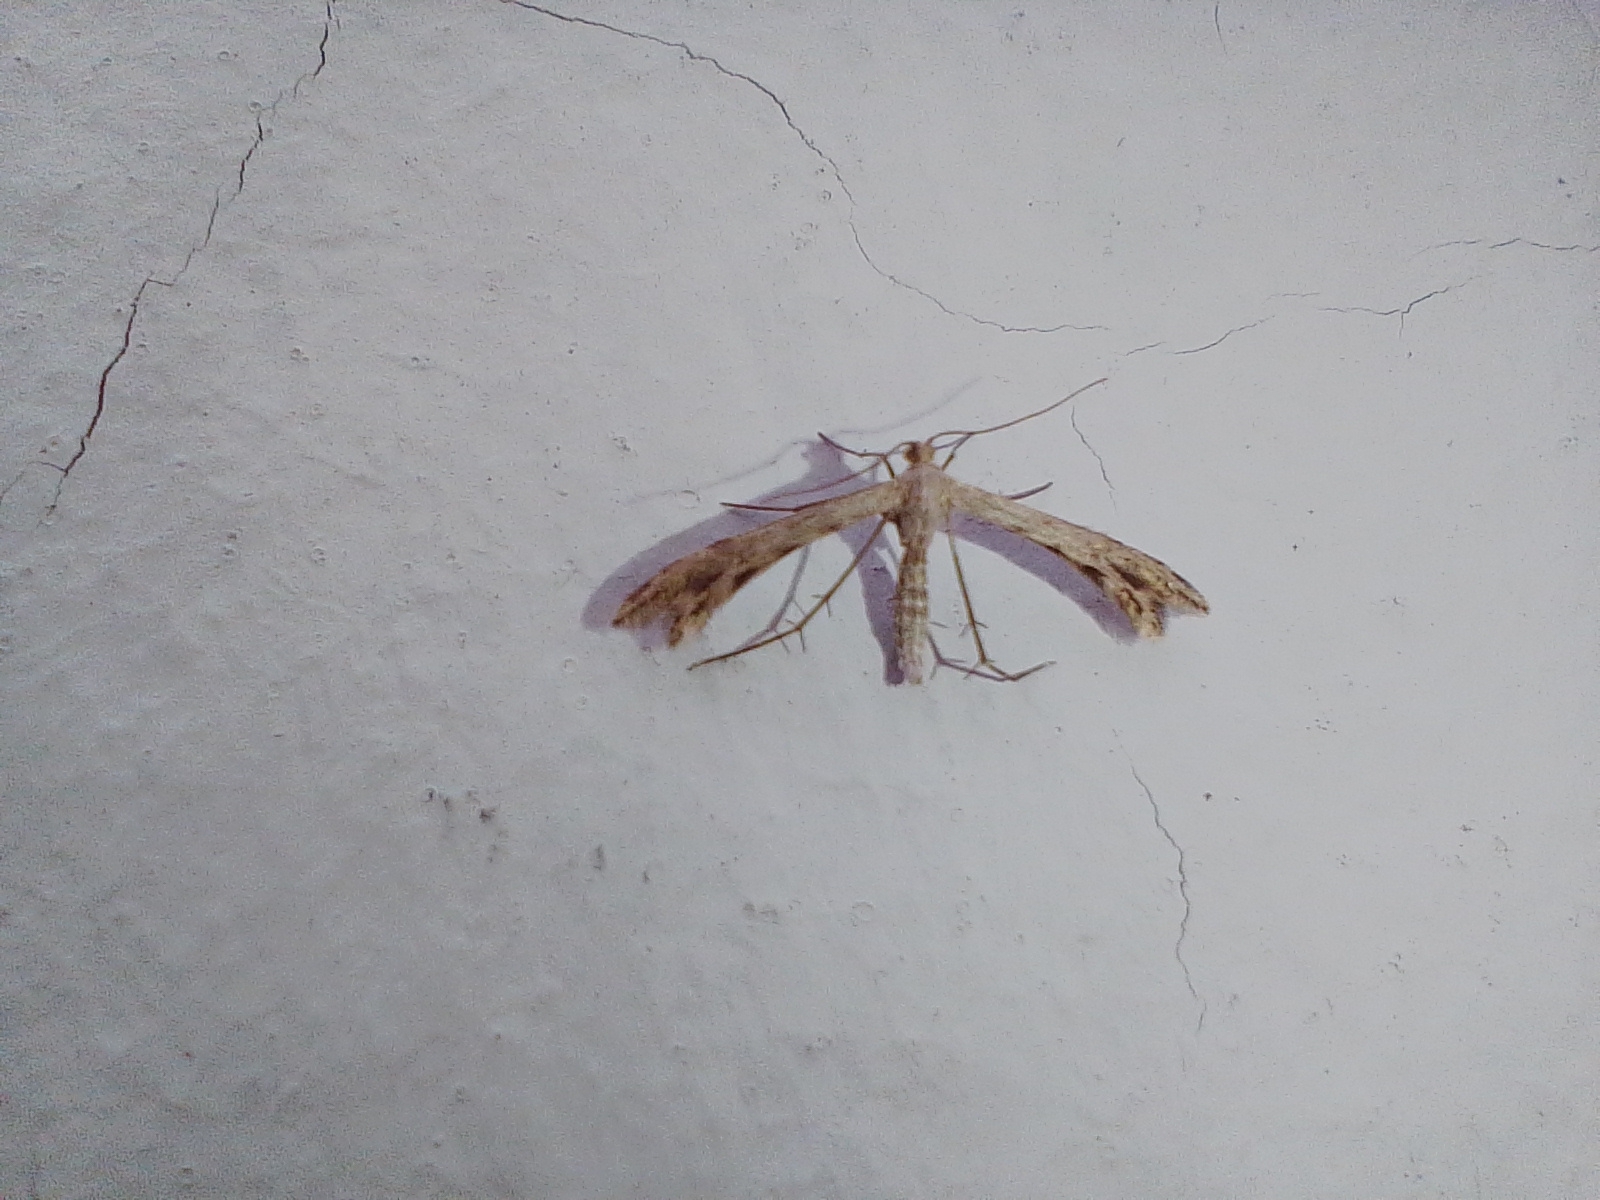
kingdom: Animalia
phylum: Arthropoda
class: Insecta
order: Lepidoptera
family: Pterophoridae
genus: Singularia
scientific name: Singularia alternaria
